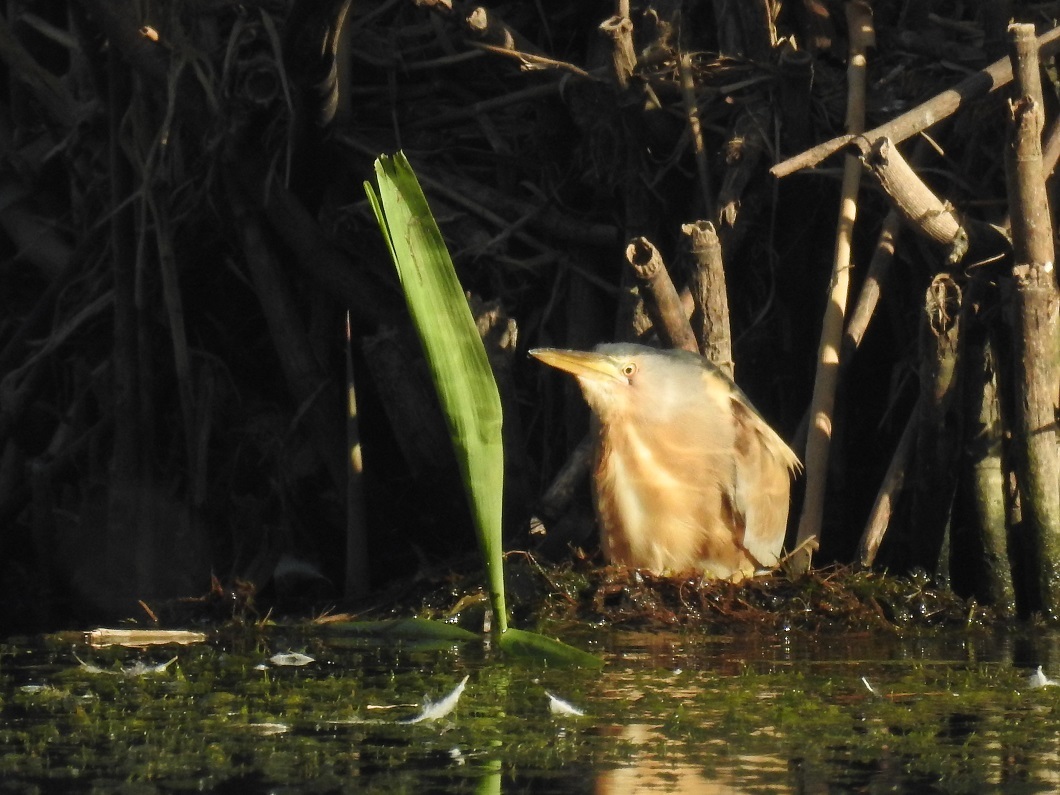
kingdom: Animalia
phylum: Chordata
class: Aves
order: Pelecaniformes
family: Ardeidae
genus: Ixobrychus
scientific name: Ixobrychus minutus
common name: Little bittern
